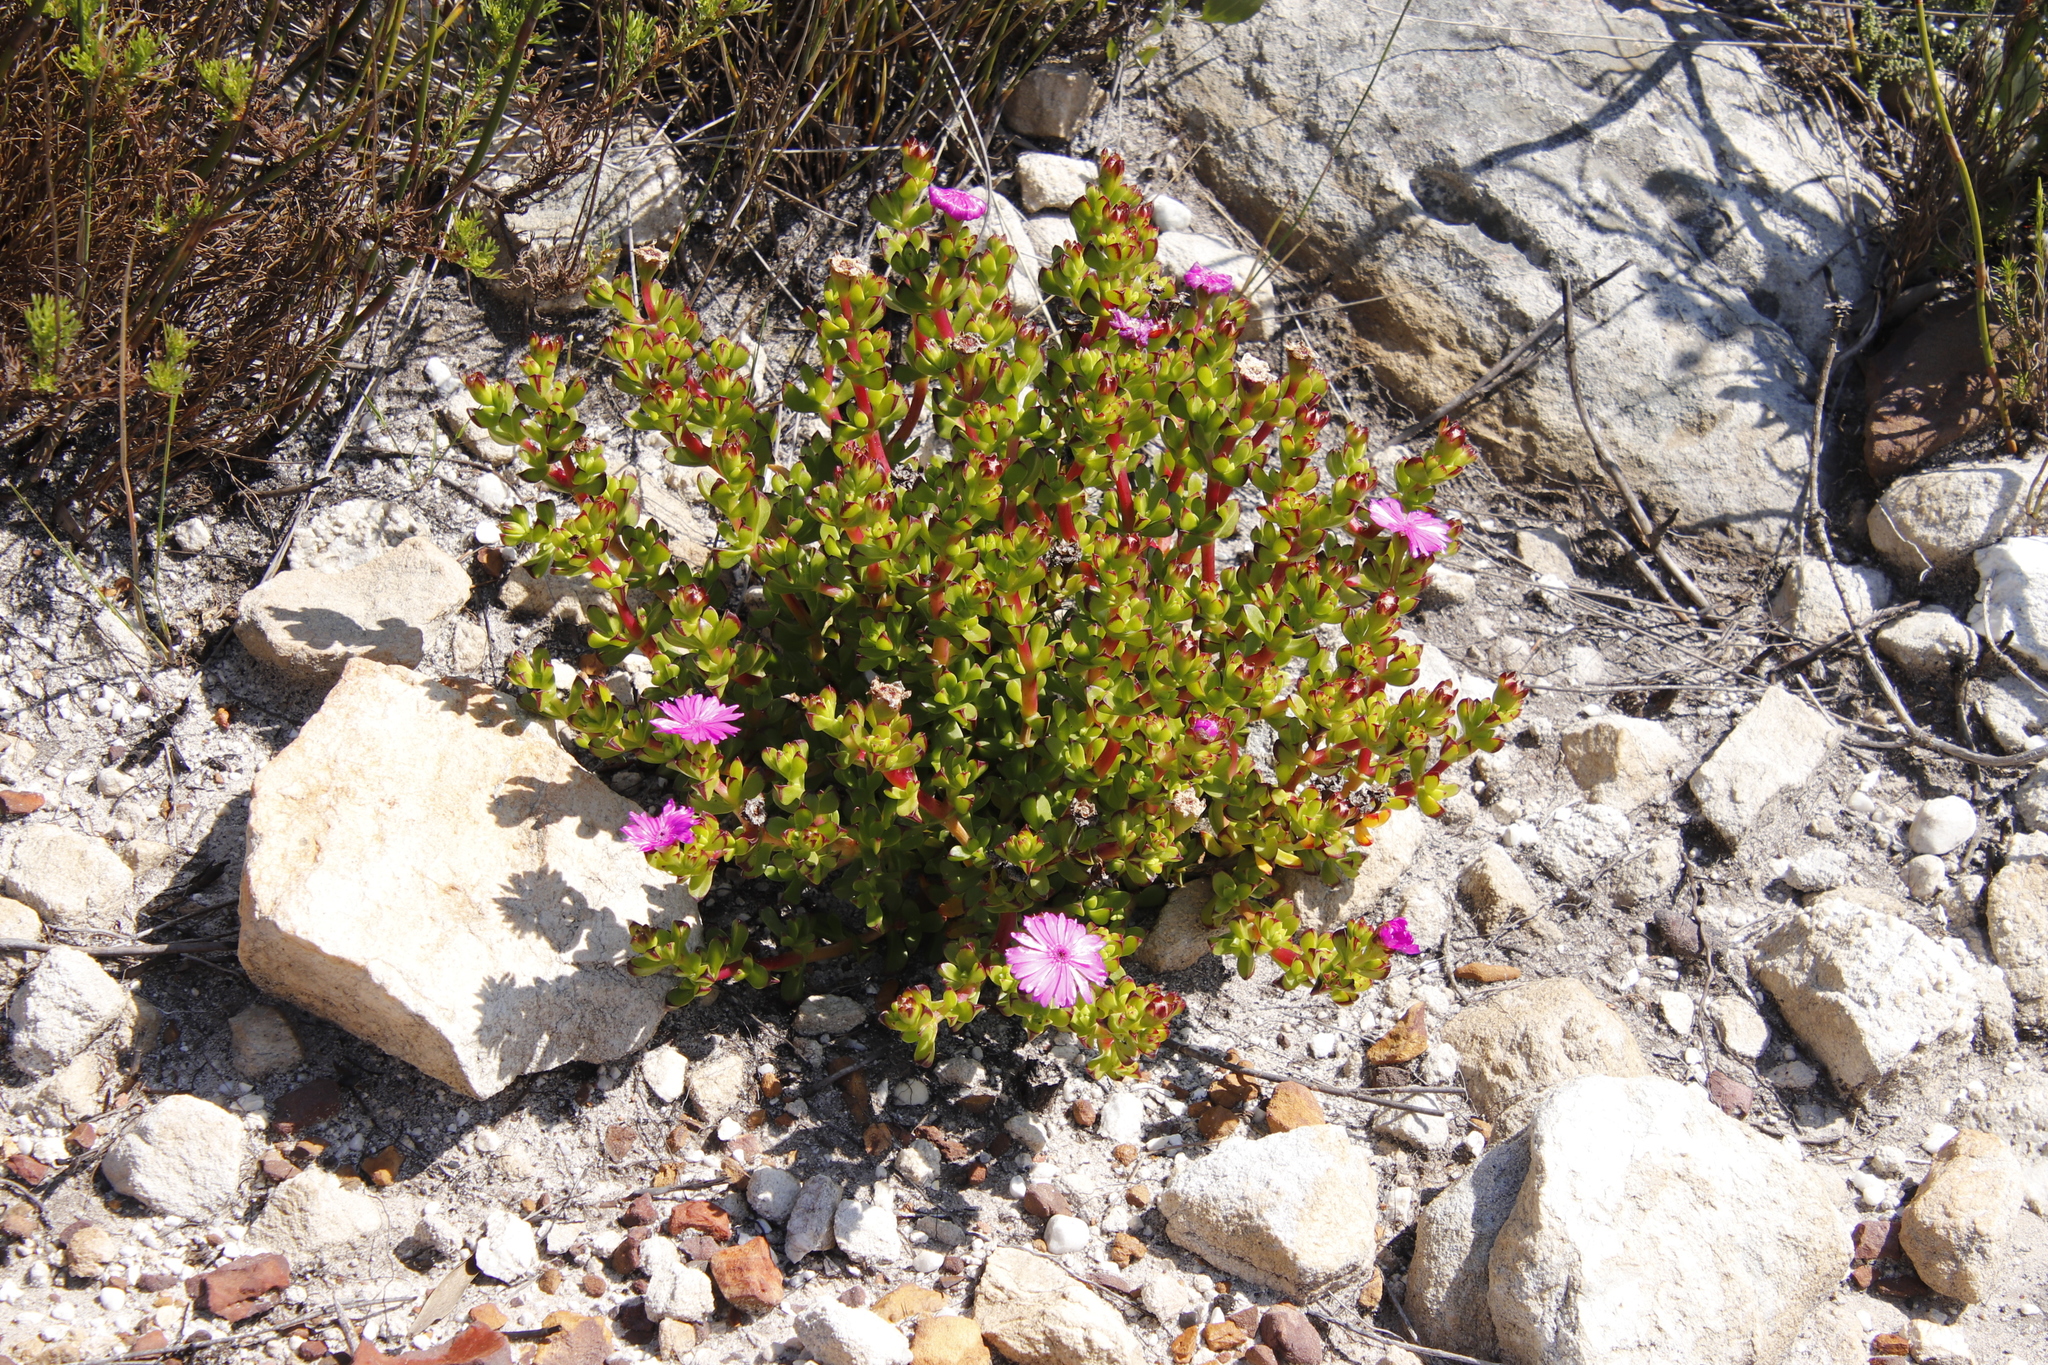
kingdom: Plantae
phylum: Tracheophyta
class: Magnoliopsida
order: Caryophyllales
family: Aizoaceae
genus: Erepsia
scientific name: Erepsia inclaudens
